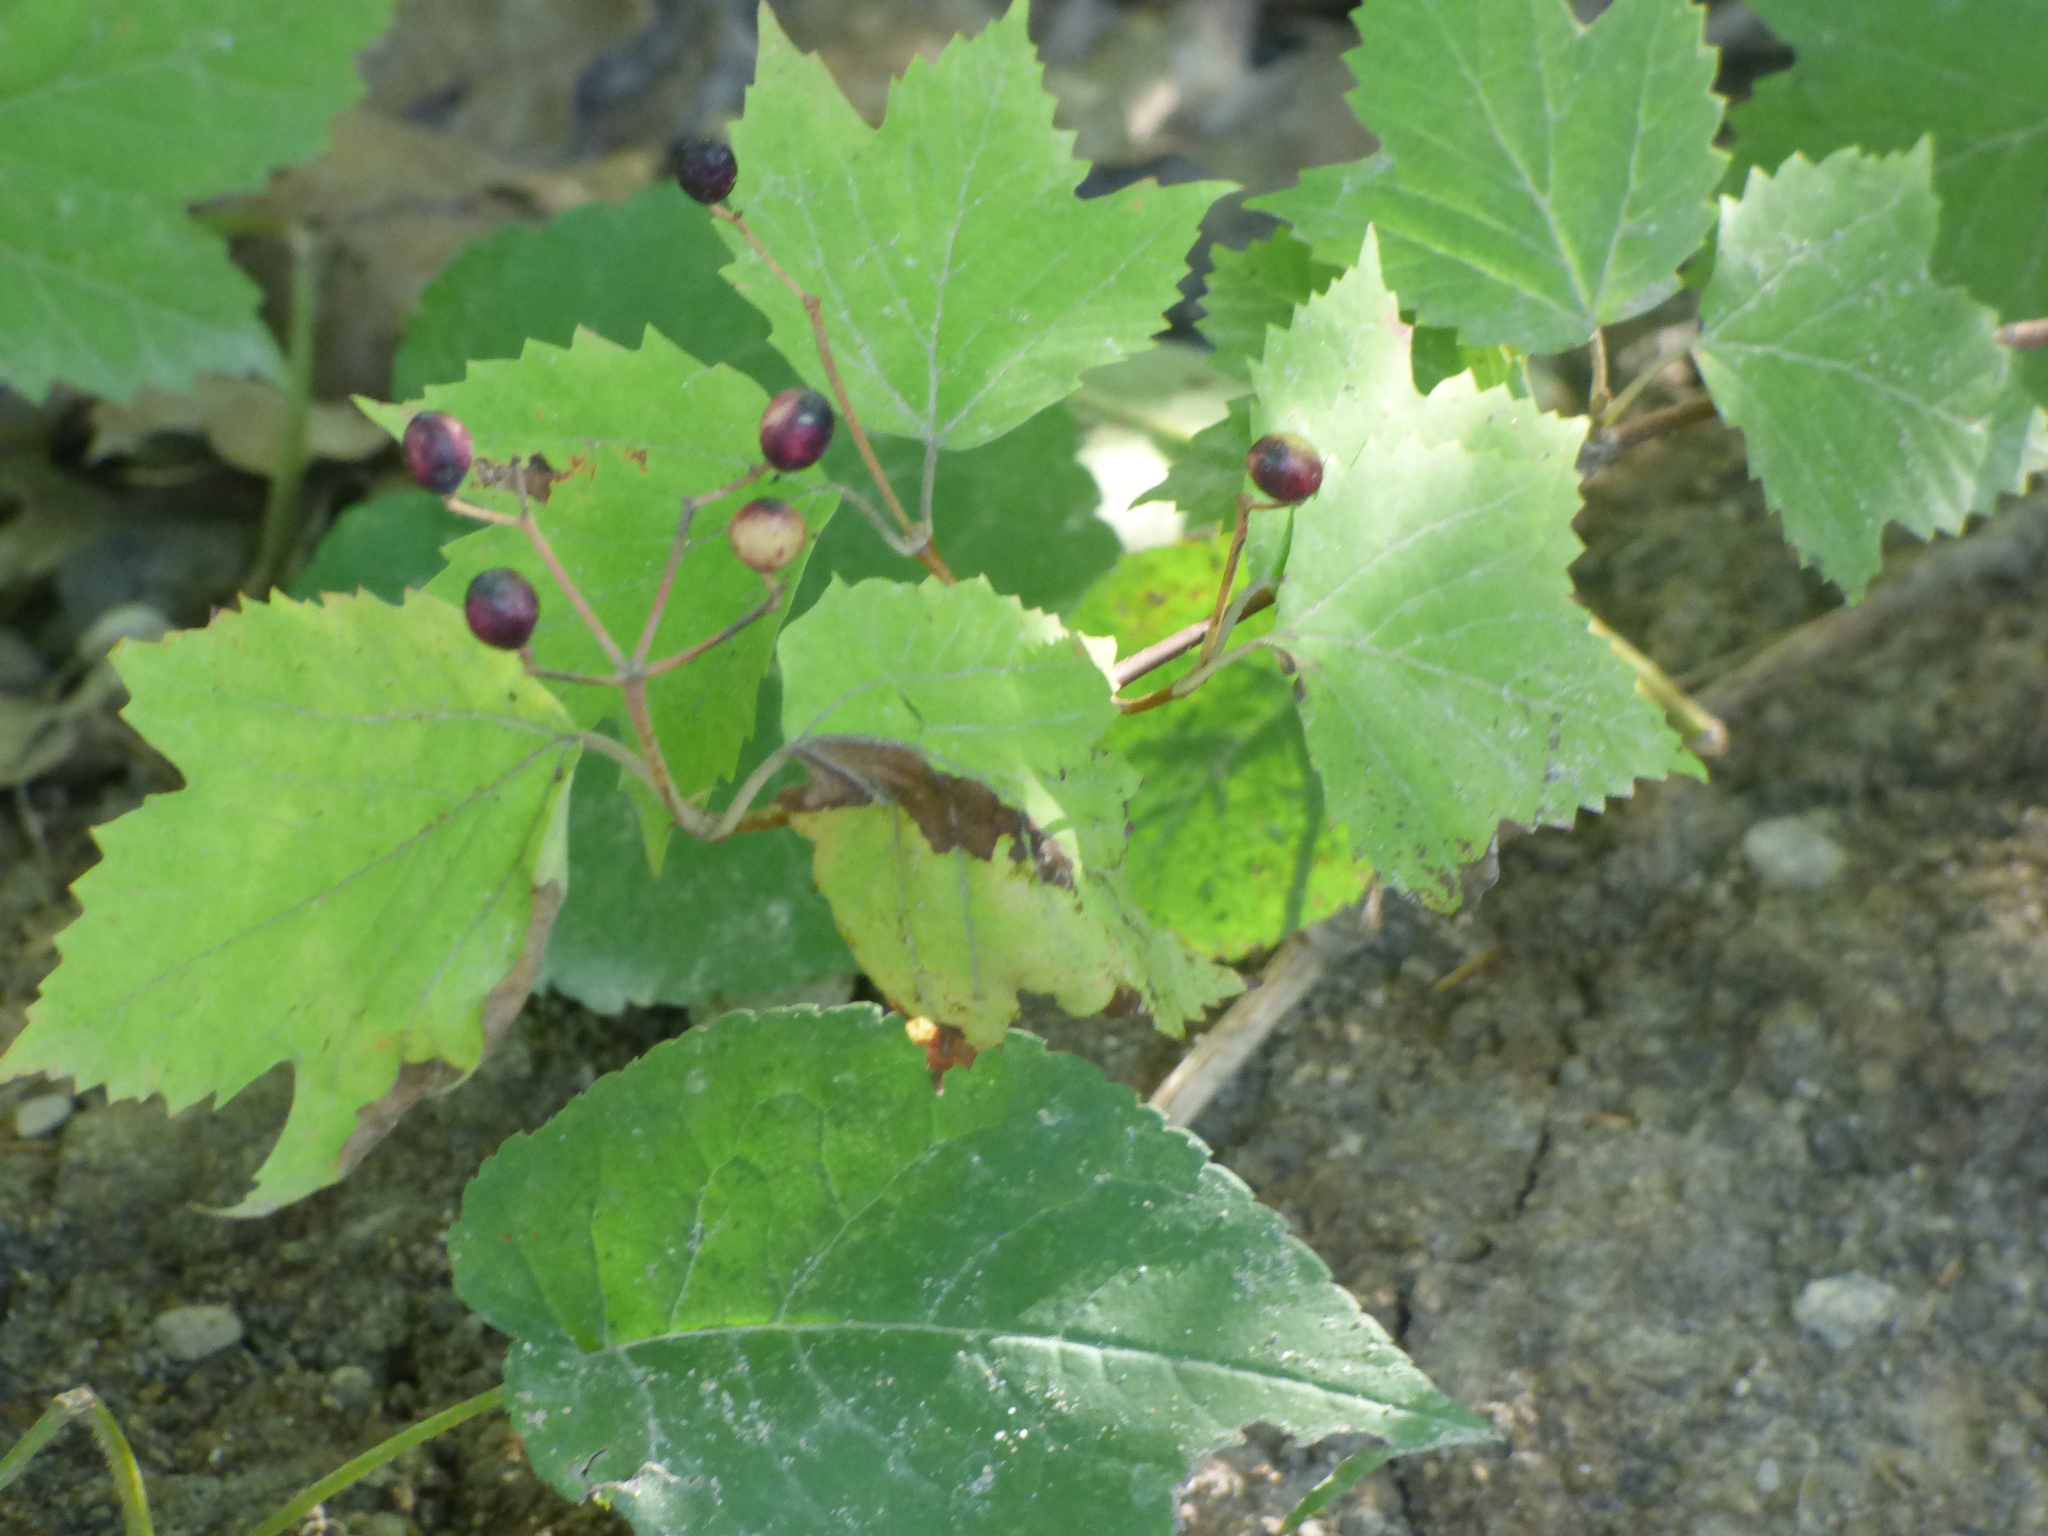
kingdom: Plantae
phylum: Tracheophyta
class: Magnoliopsida
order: Dipsacales
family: Viburnaceae
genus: Viburnum
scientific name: Viburnum acerifolium
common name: Dockmackie
